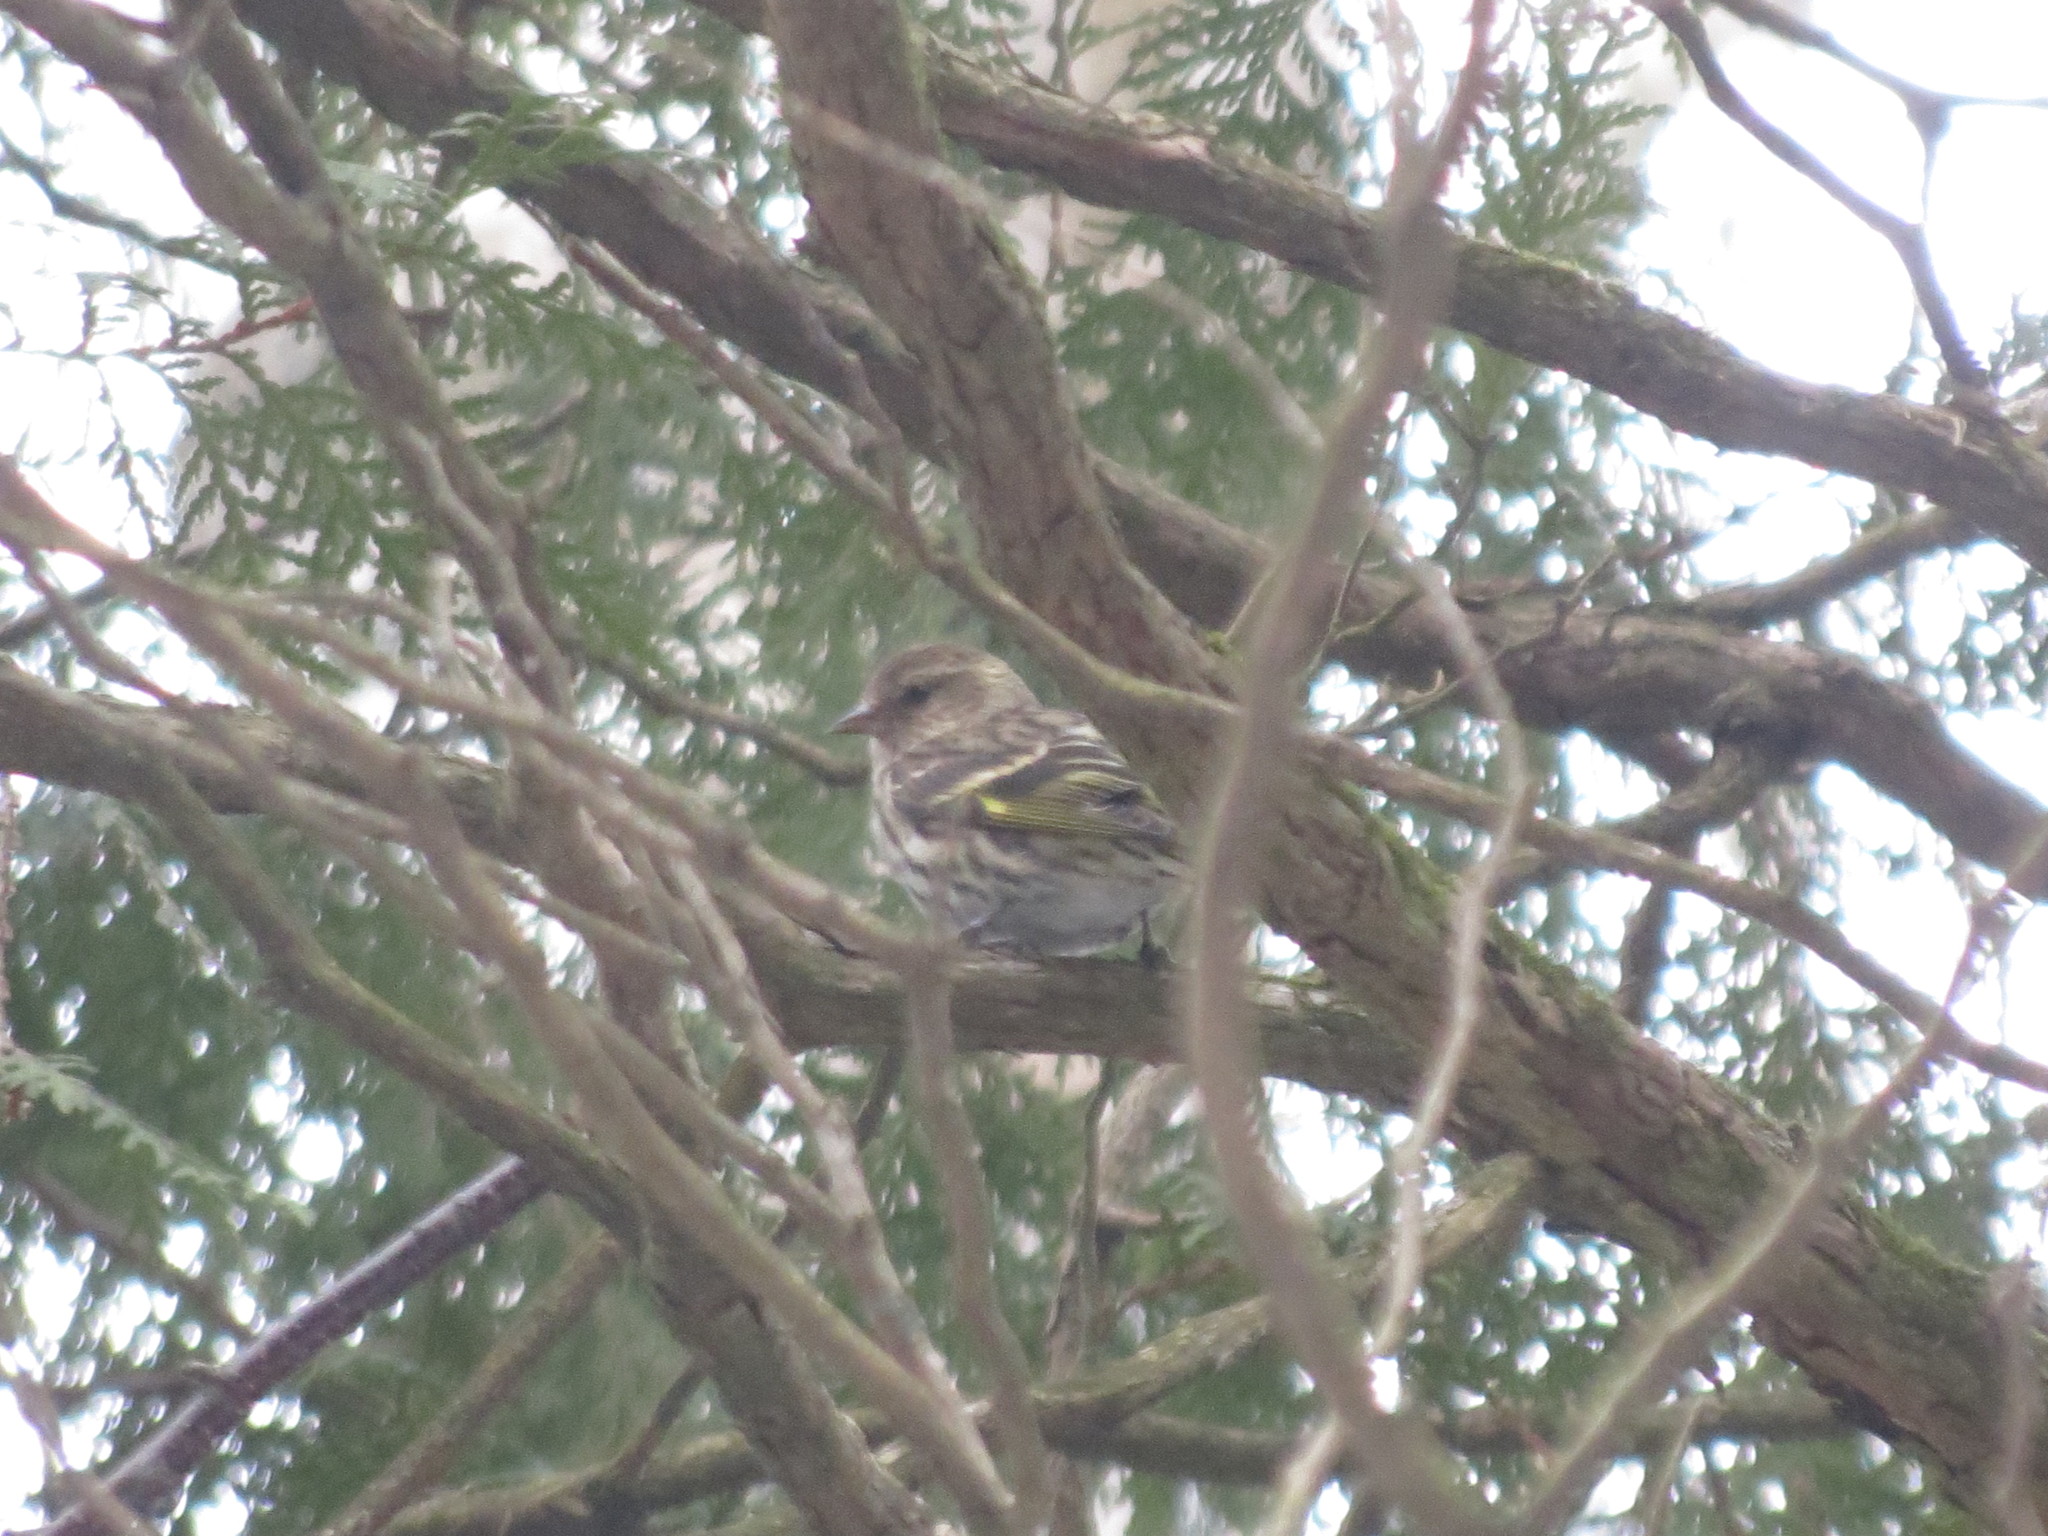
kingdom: Animalia
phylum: Chordata
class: Aves
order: Passeriformes
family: Fringillidae
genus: Spinus
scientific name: Spinus pinus
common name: Pine siskin
